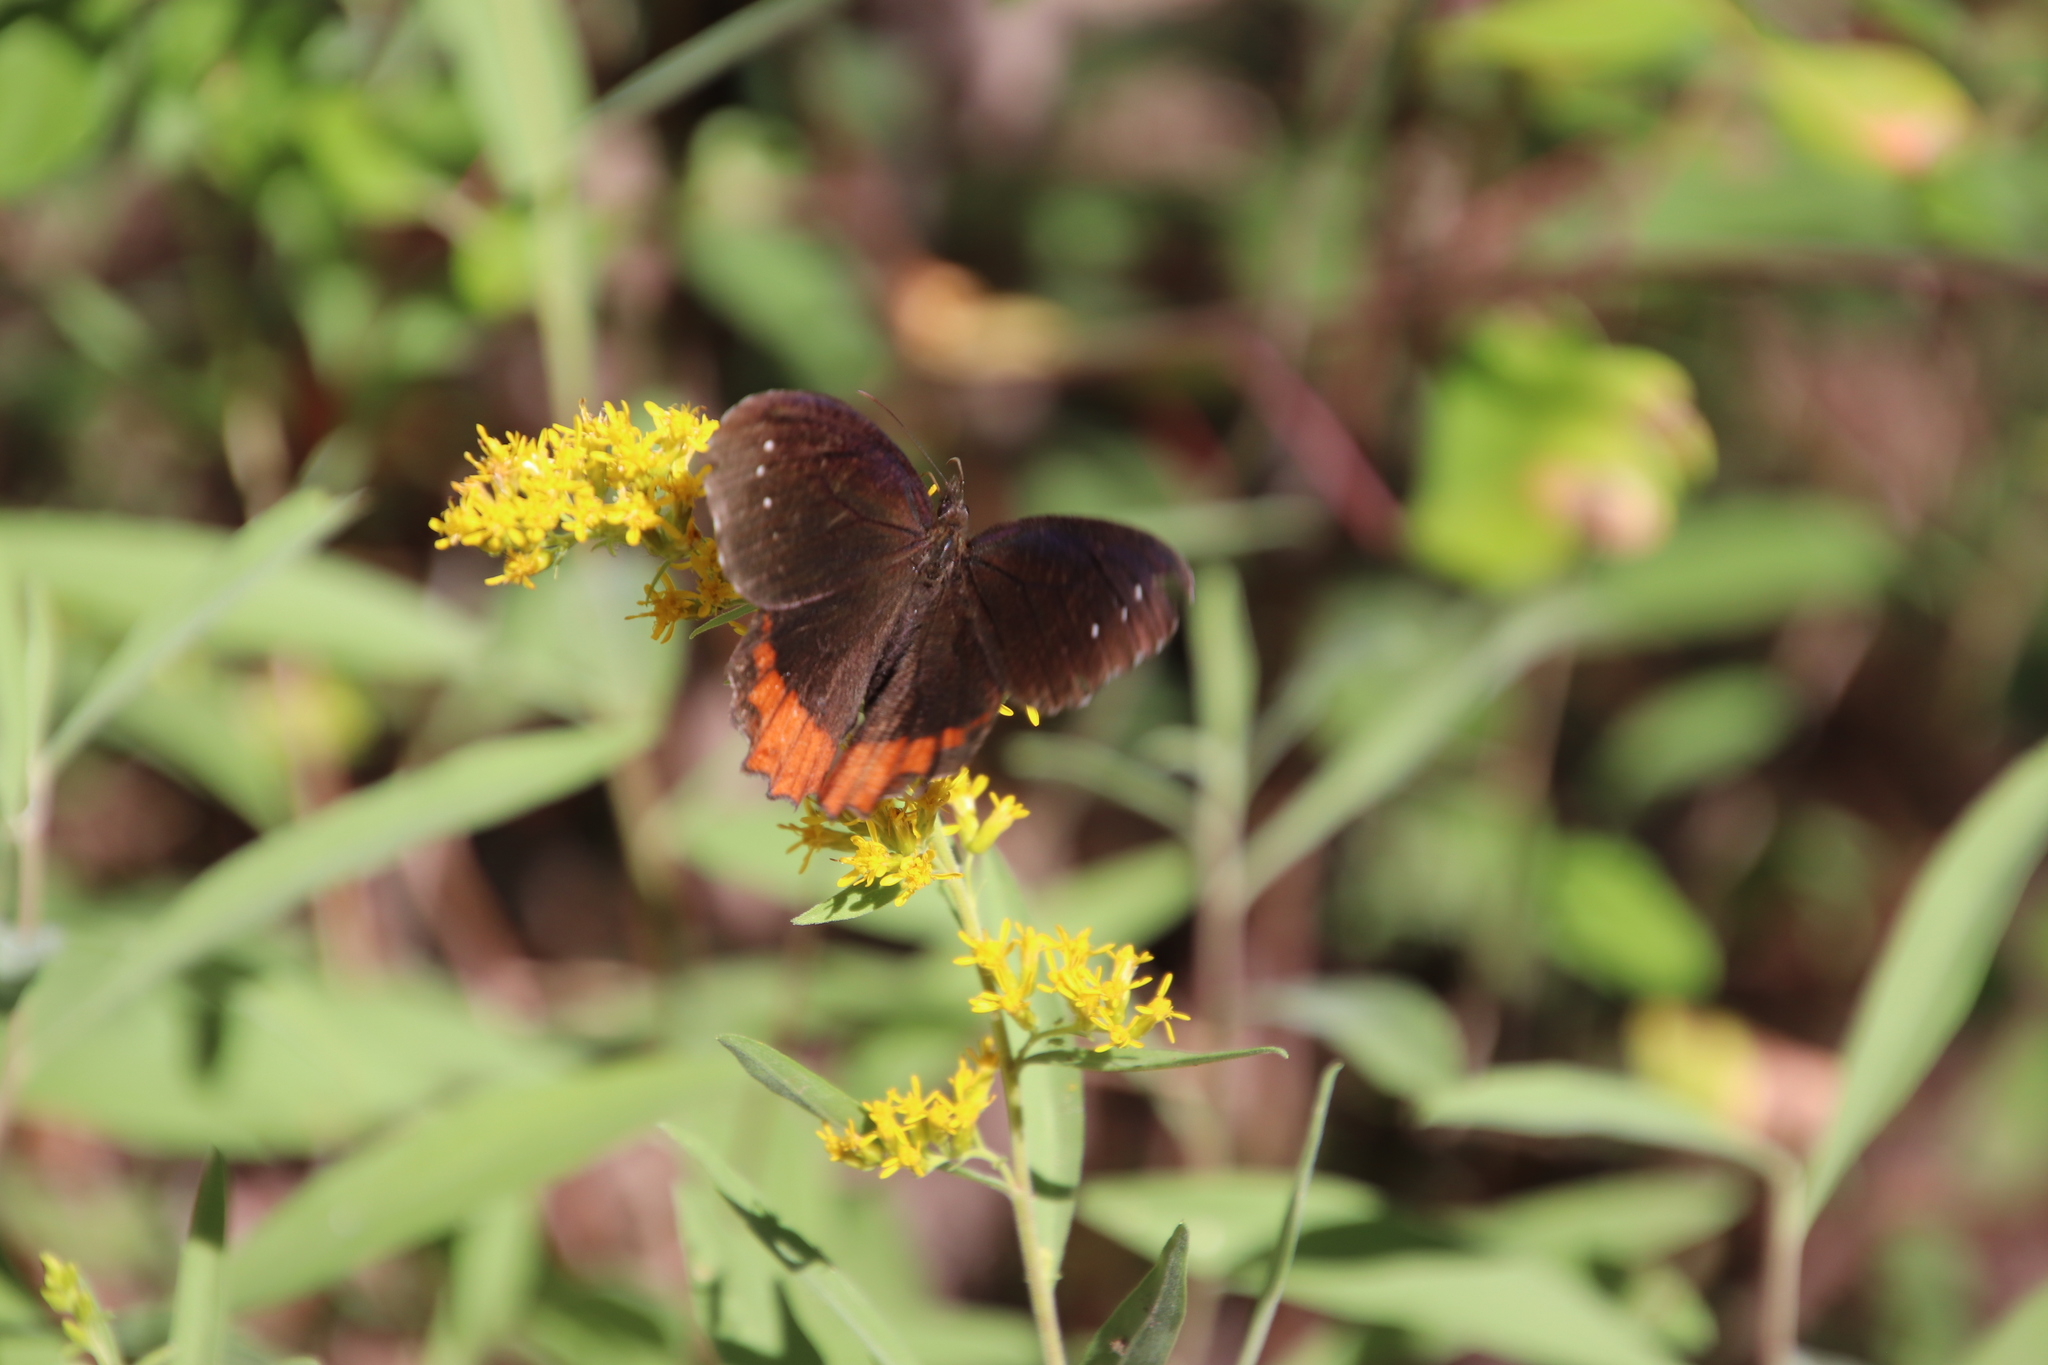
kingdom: Animalia
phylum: Arthropoda
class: Insecta
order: Lepidoptera
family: Nymphalidae
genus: Gyrocheilus
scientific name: Gyrocheilus patrobas
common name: Red-bordered satyr
